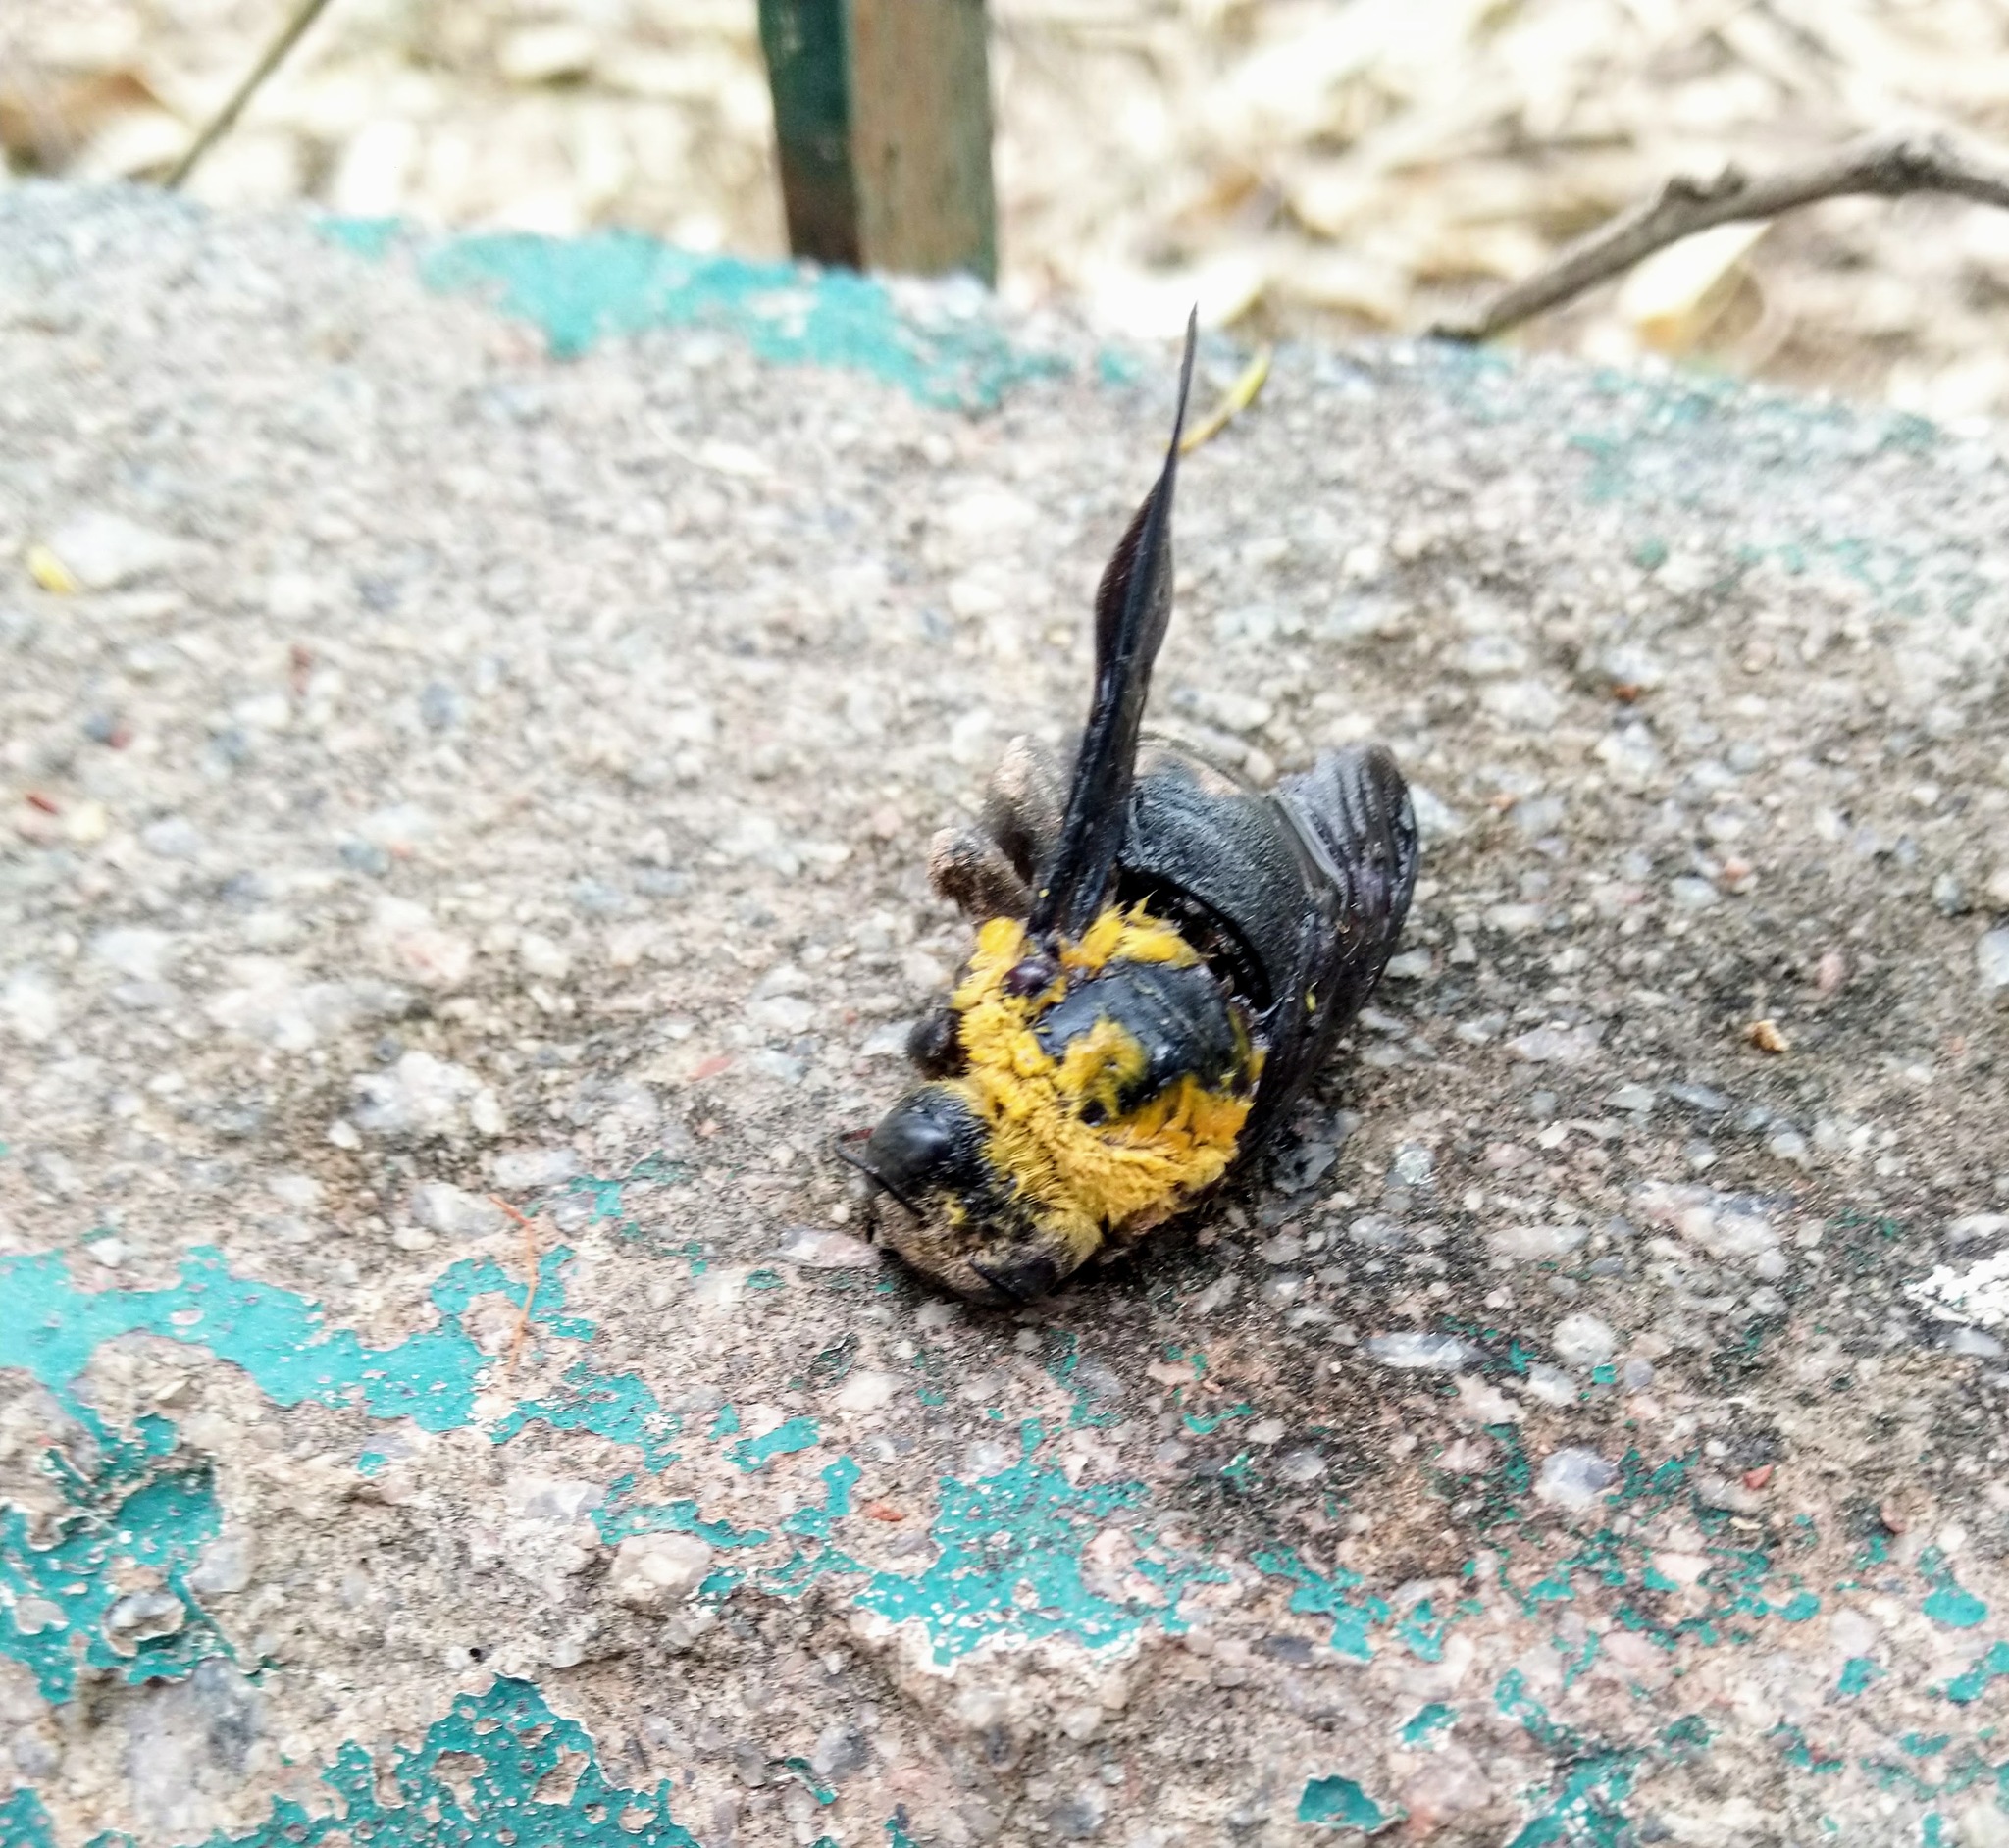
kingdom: Animalia
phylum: Arthropoda
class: Insecta
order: Hymenoptera
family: Apidae
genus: Xylocopa
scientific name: Xylocopa ruficornis
